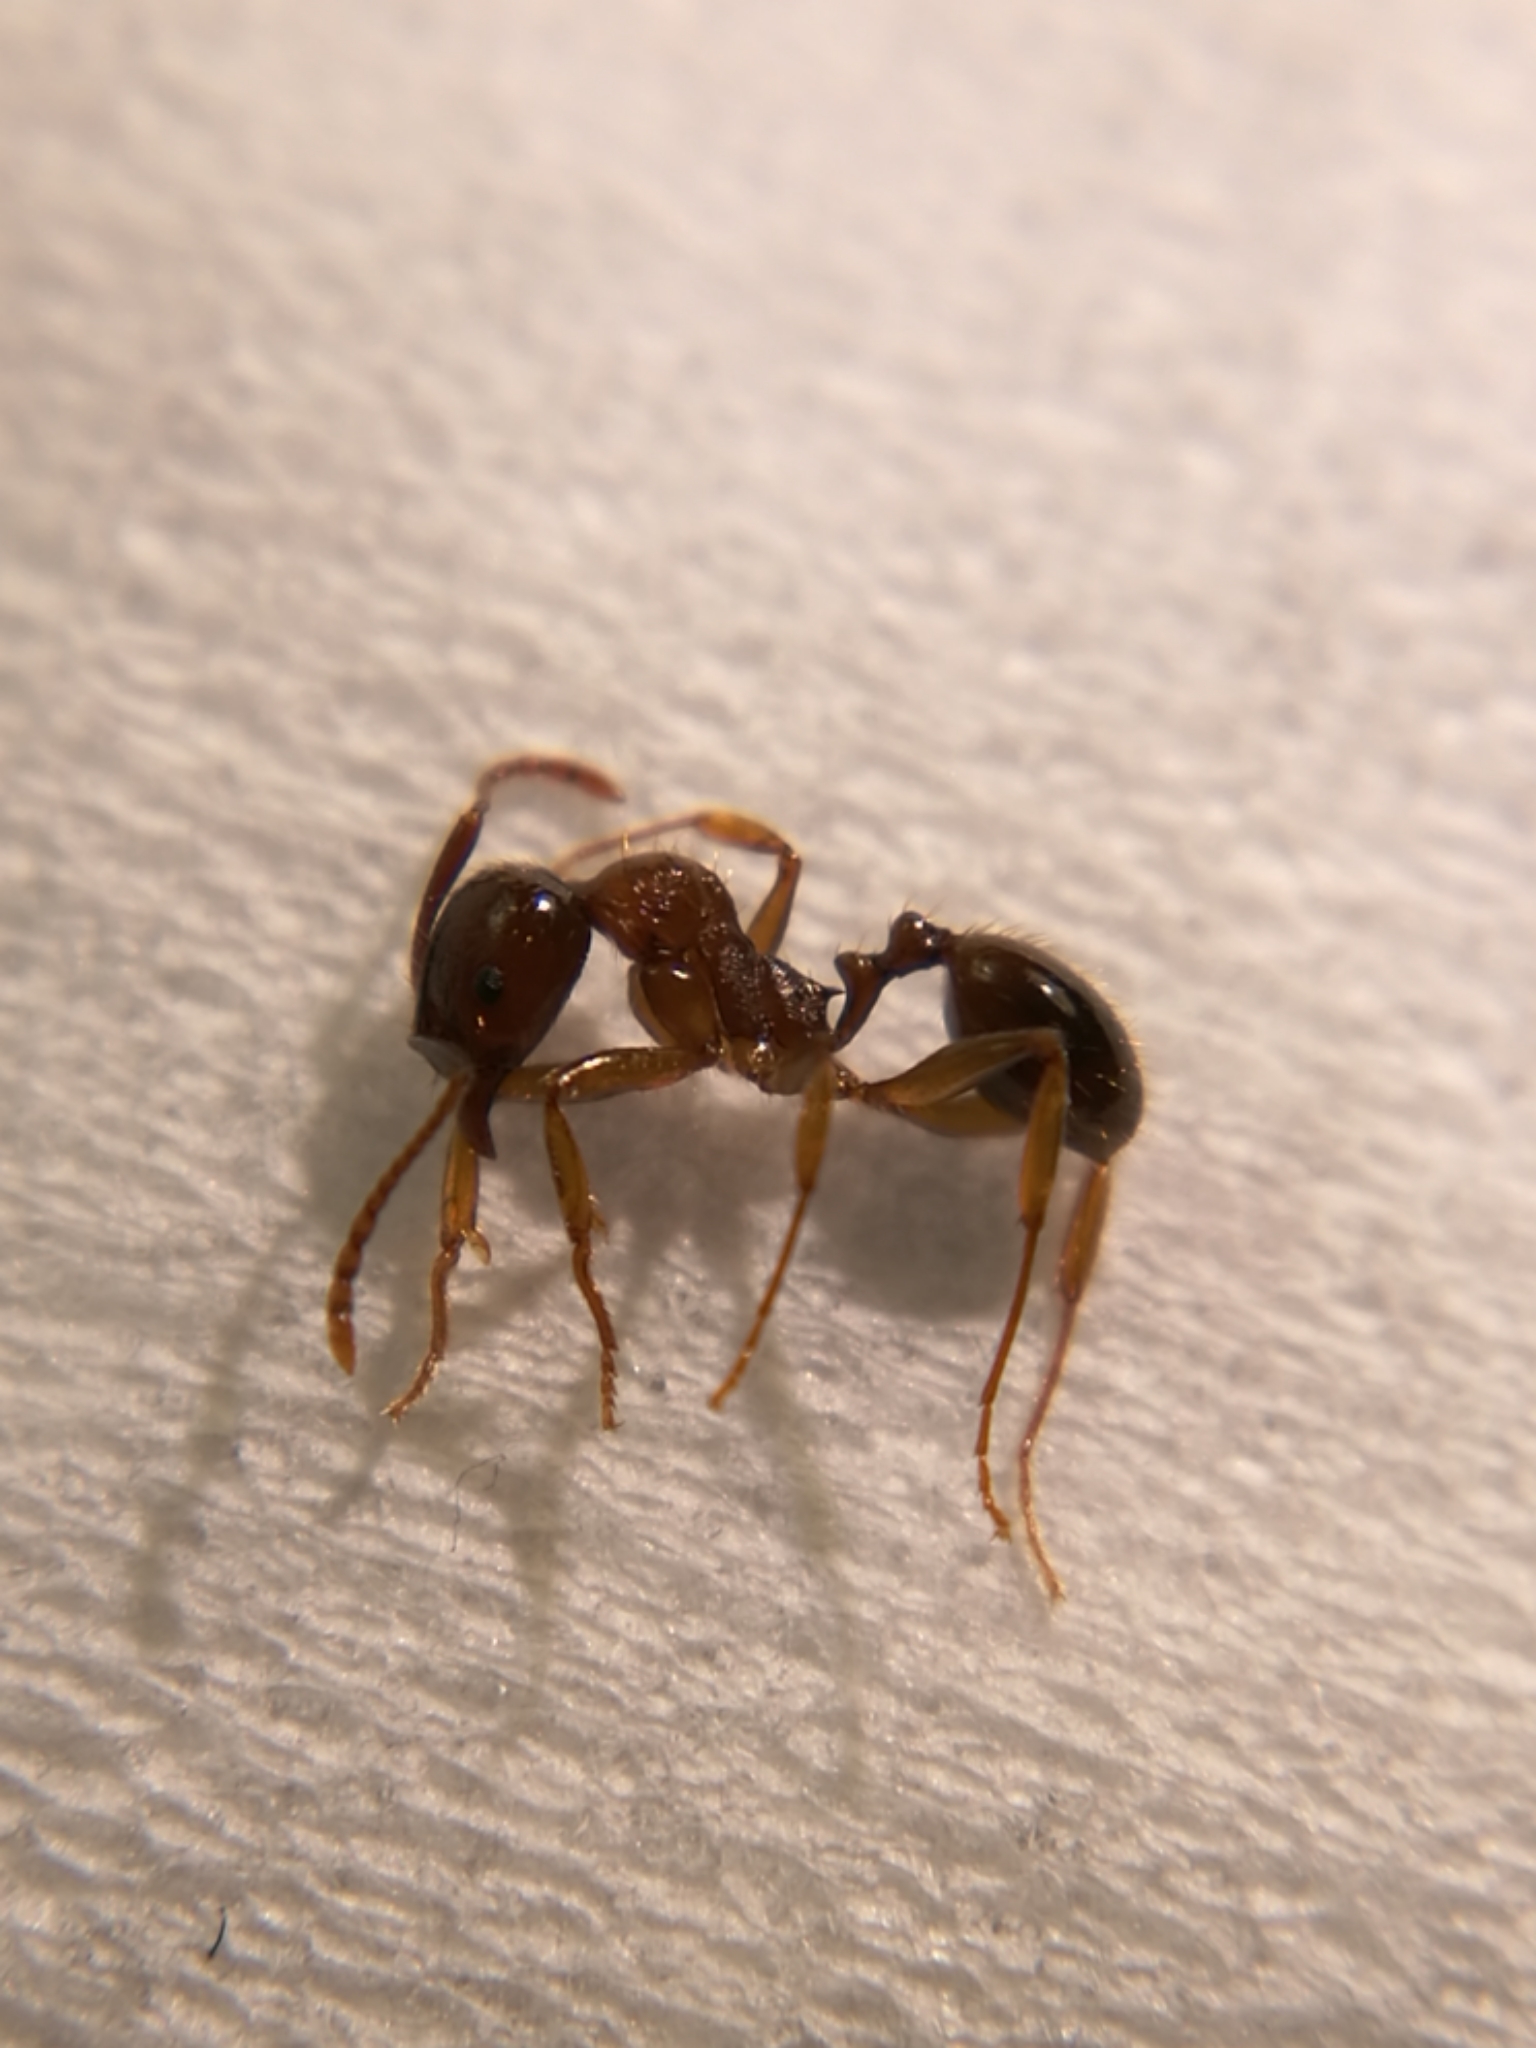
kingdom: Animalia
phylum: Arthropoda
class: Insecta
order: Hymenoptera
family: Formicidae
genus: Aphaenogaster
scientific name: Aphaenogaster subterranea
